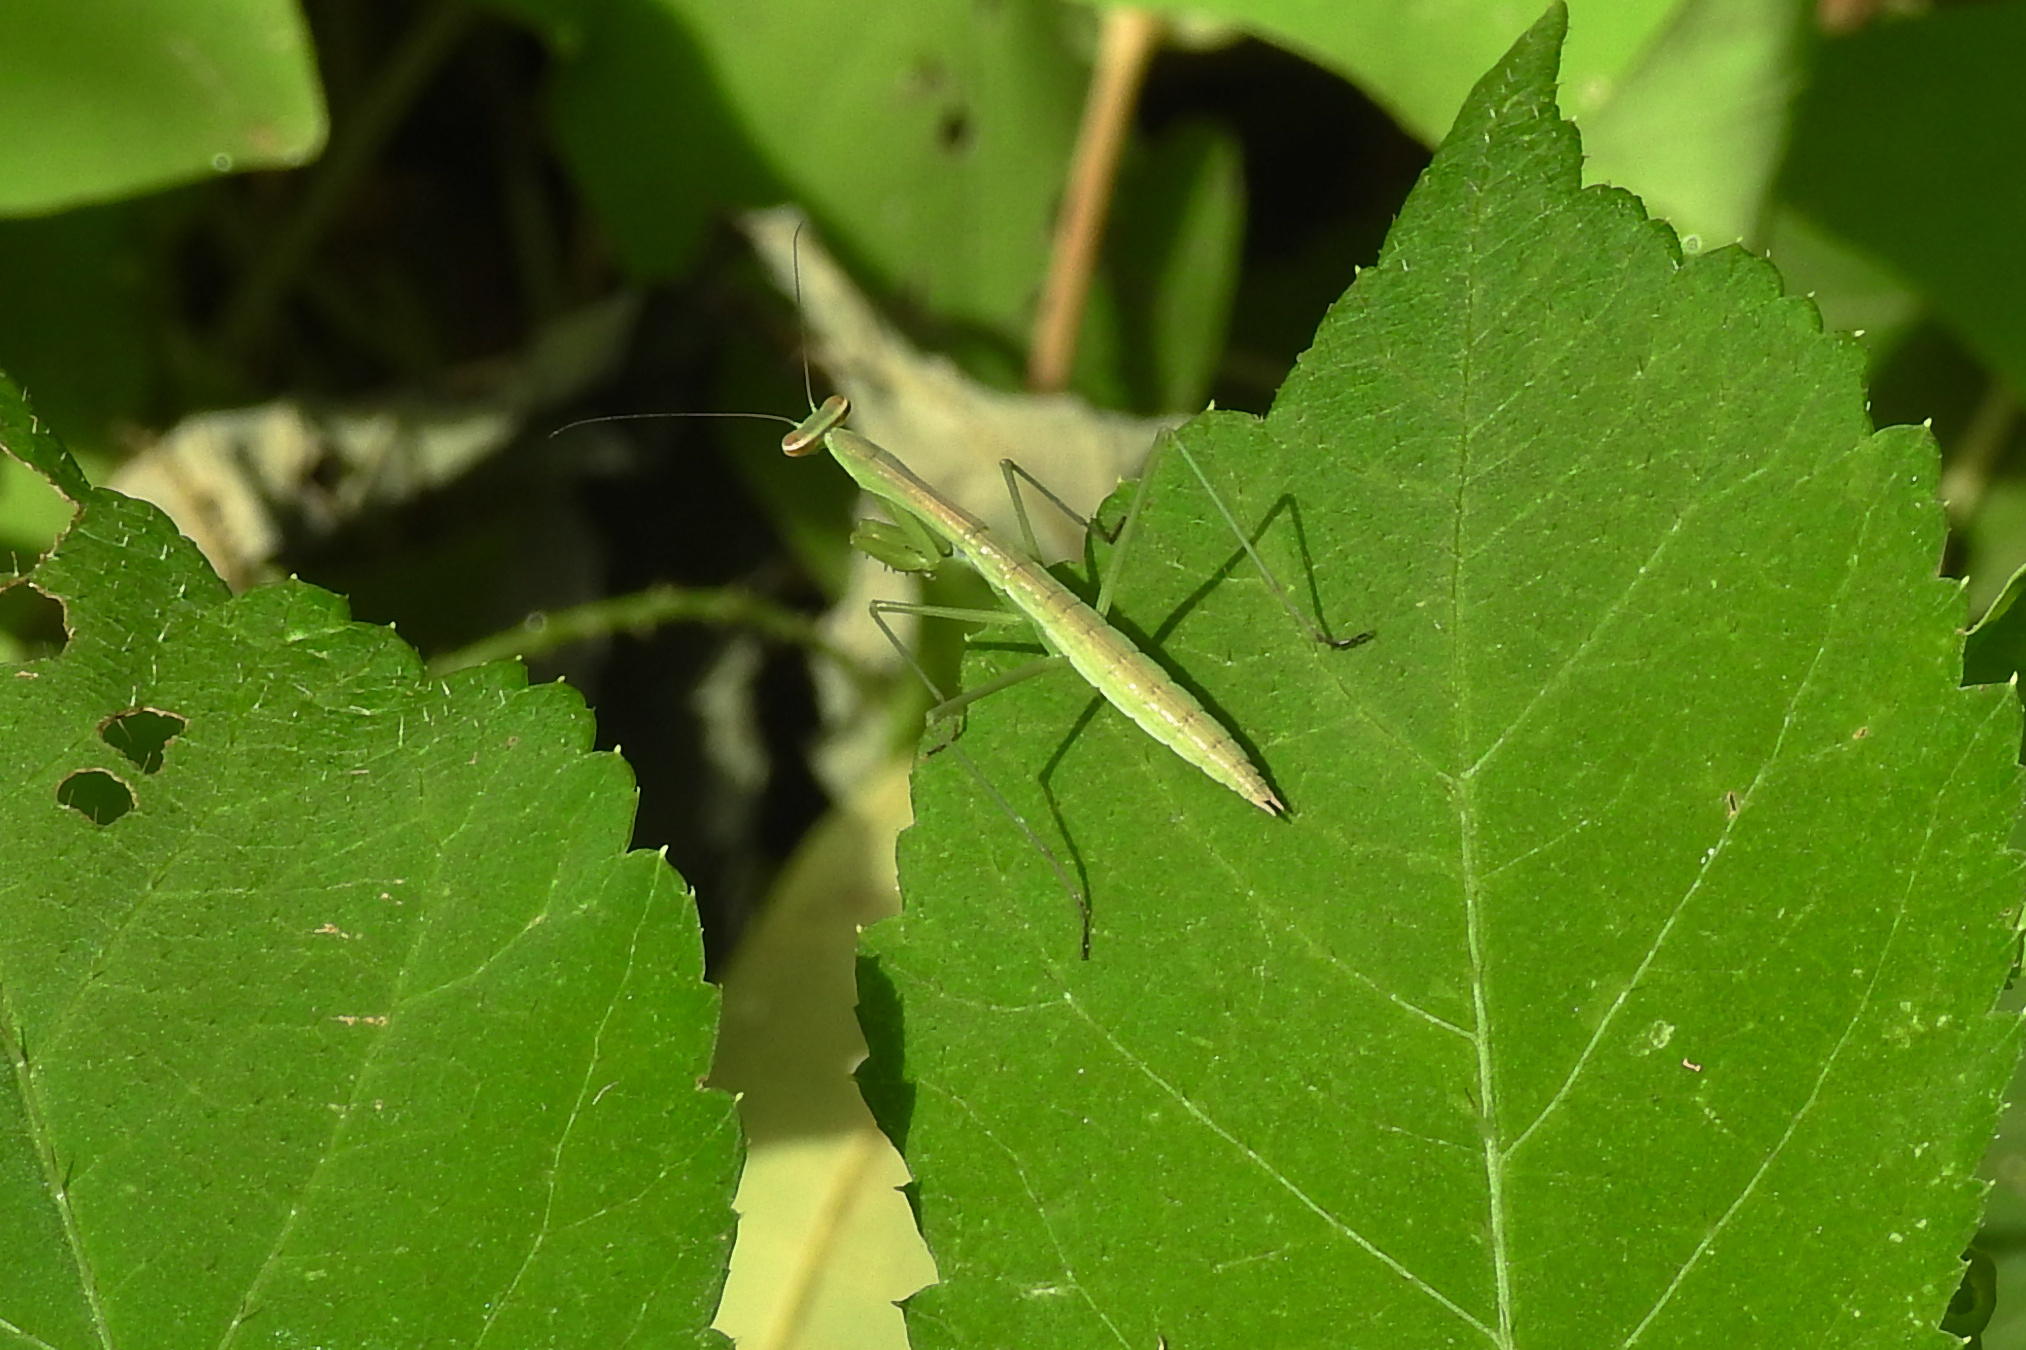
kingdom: Animalia
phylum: Arthropoda
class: Insecta
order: Mantodea
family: Mantidae
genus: Tenodera
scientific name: Tenodera sinensis
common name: Chinese mantis
